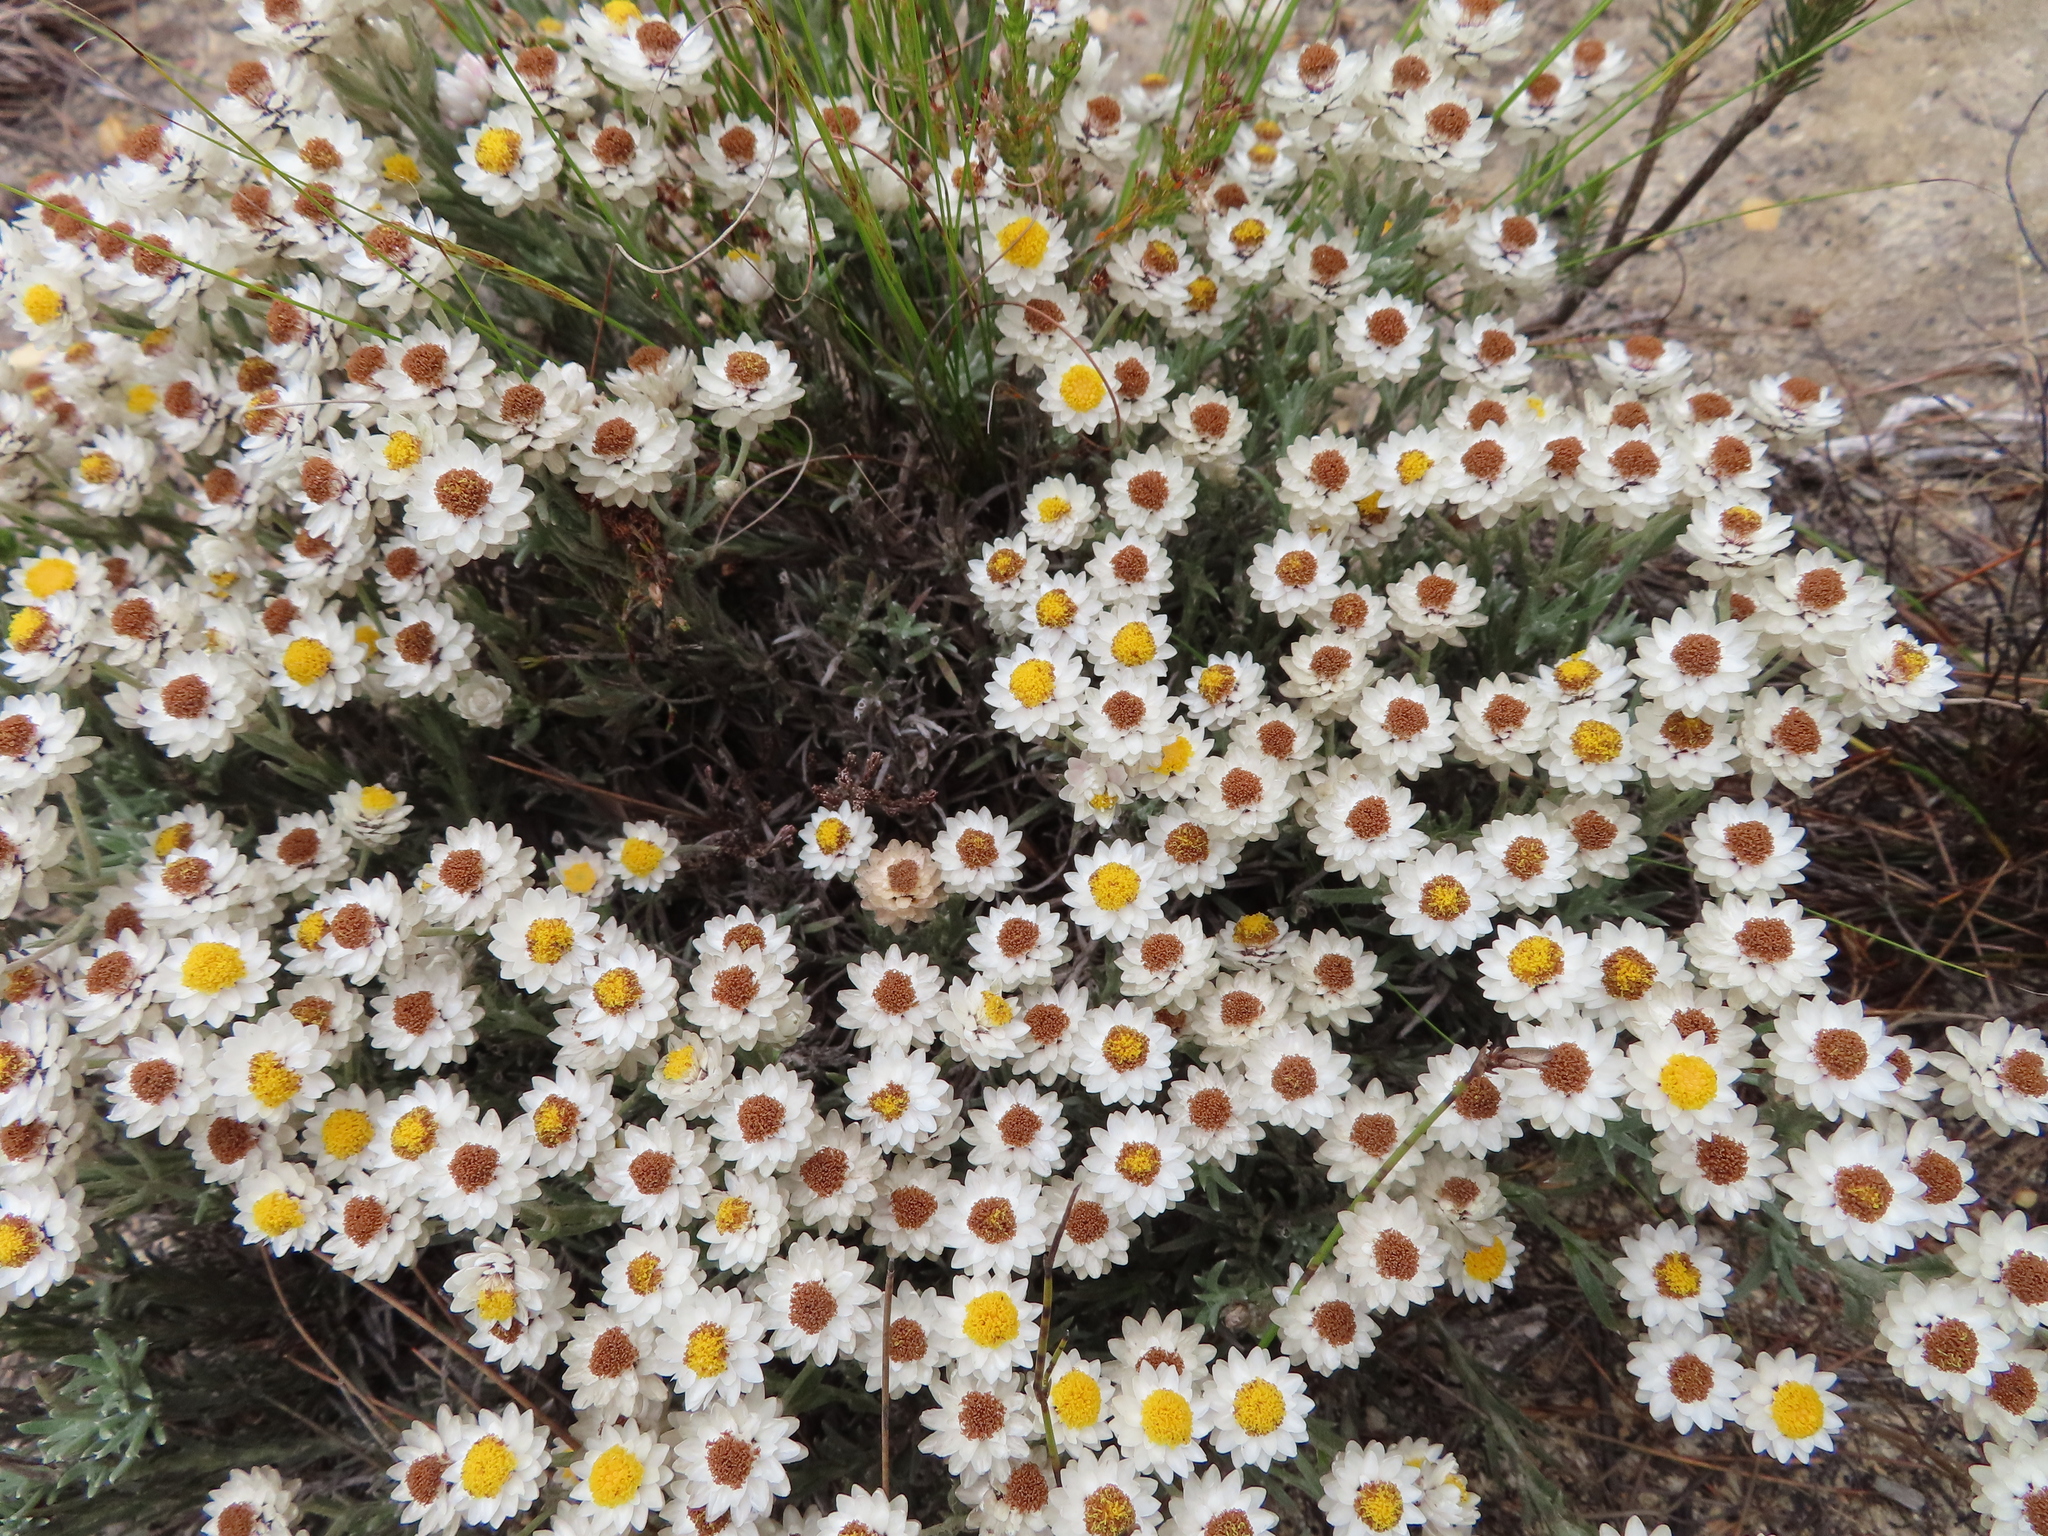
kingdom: Plantae
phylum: Tracheophyta
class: Magnoliopsida
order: Asterales
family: Asteraceae
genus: Achyranthemum
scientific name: Achyranthemum paniculatum
